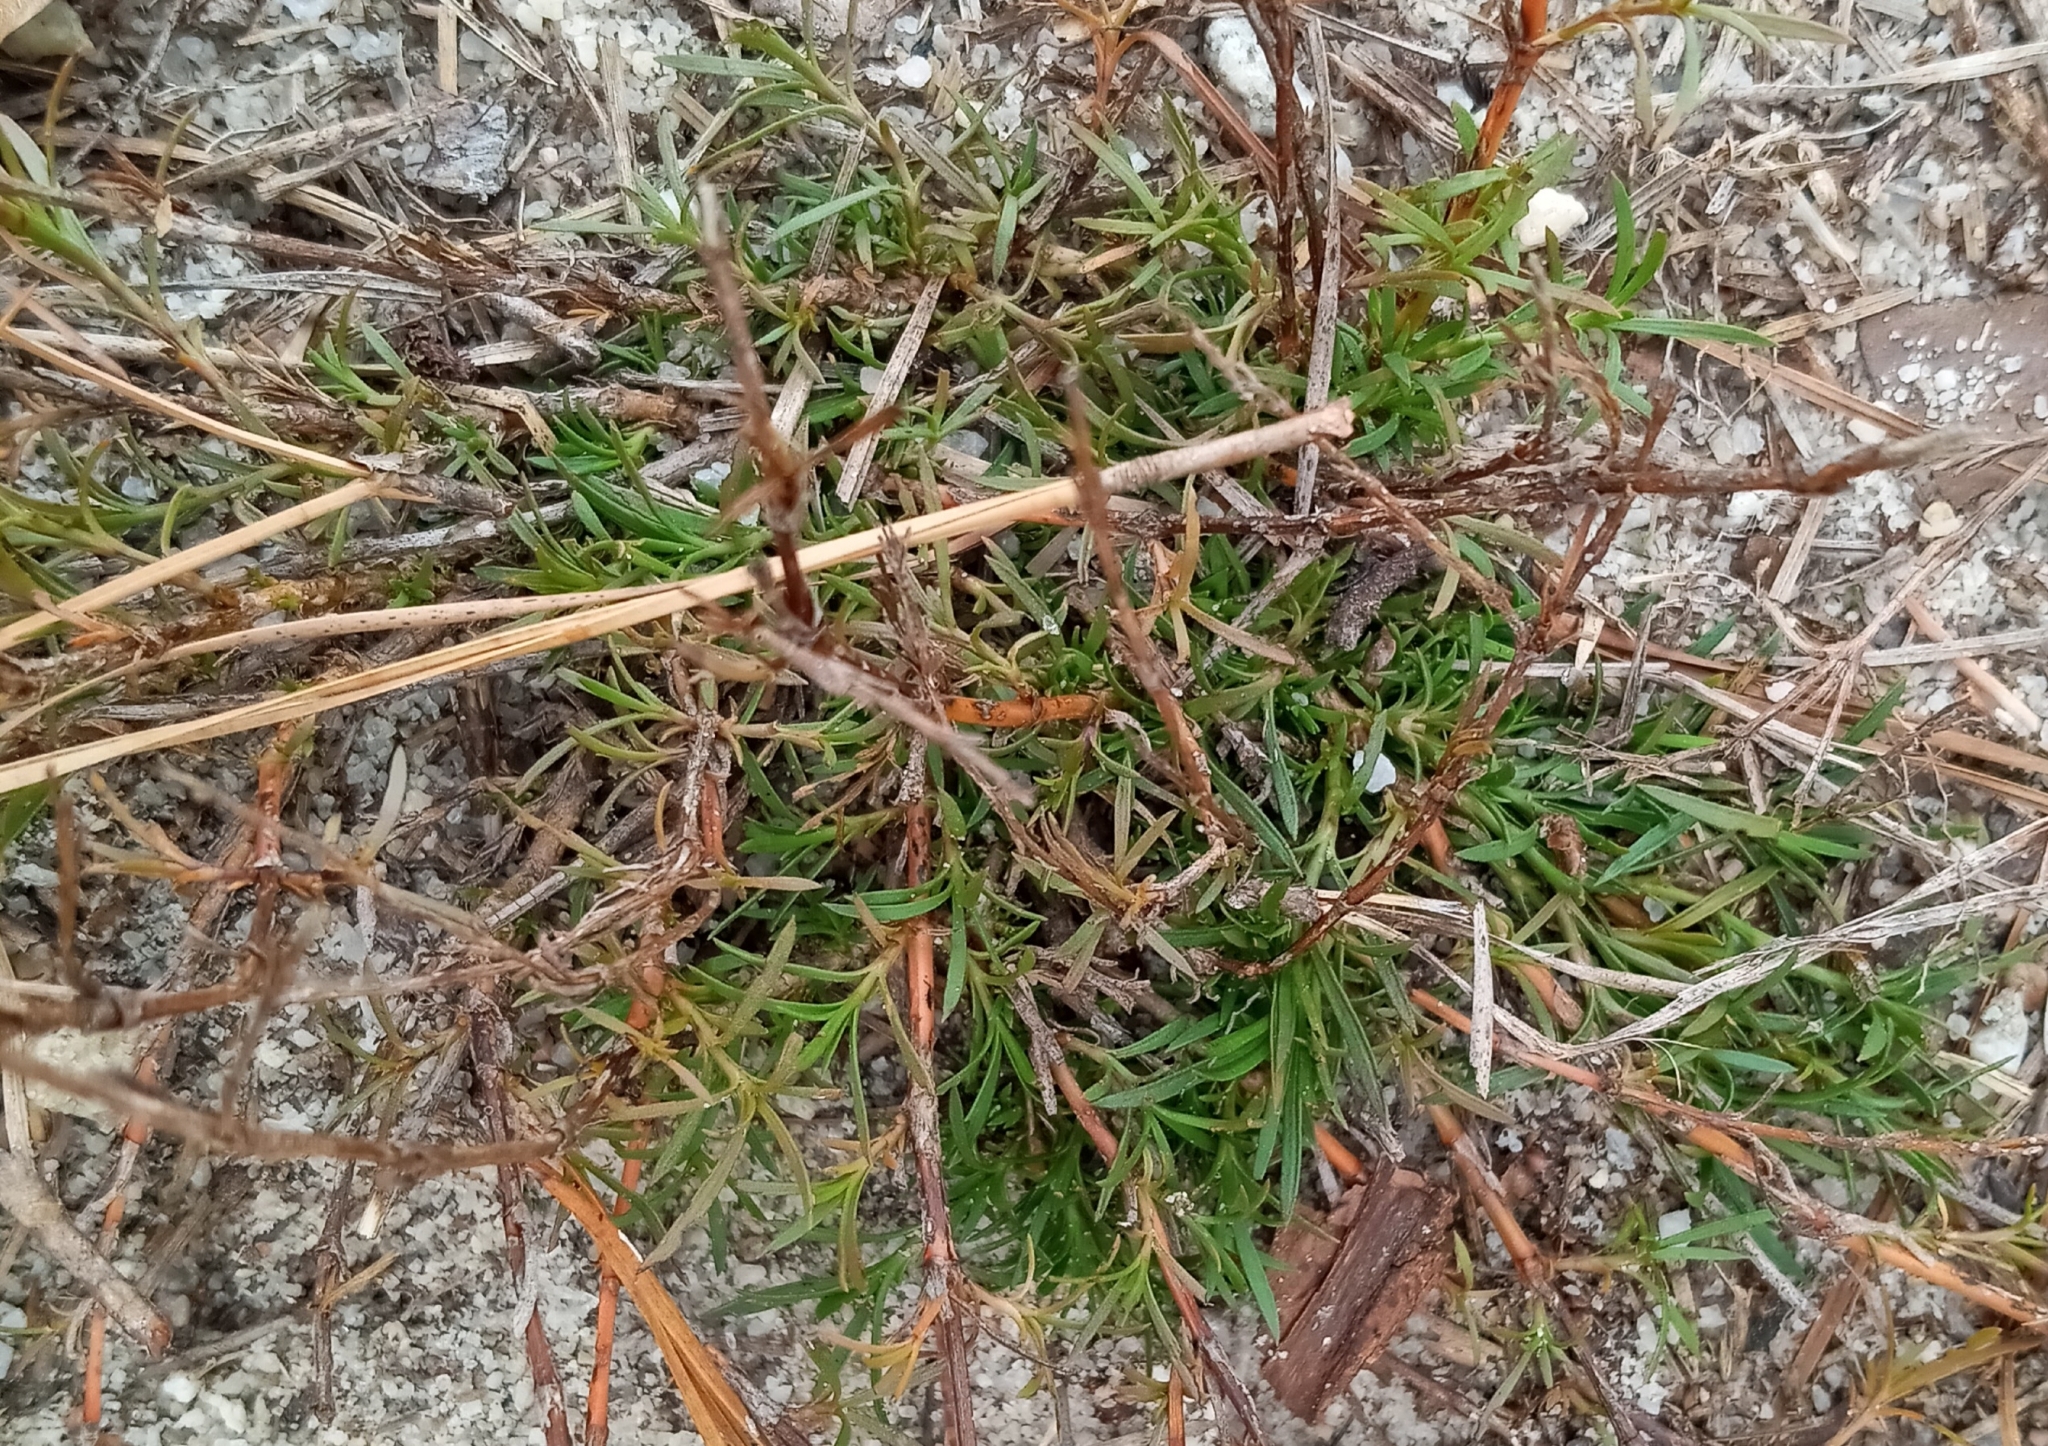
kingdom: Plantae
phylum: Tracheophyta
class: Magnoliopsida
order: Lamiales
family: Tetrachondraceae
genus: Polypremum
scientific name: Polypremum procumbens
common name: Juniper-leaf
